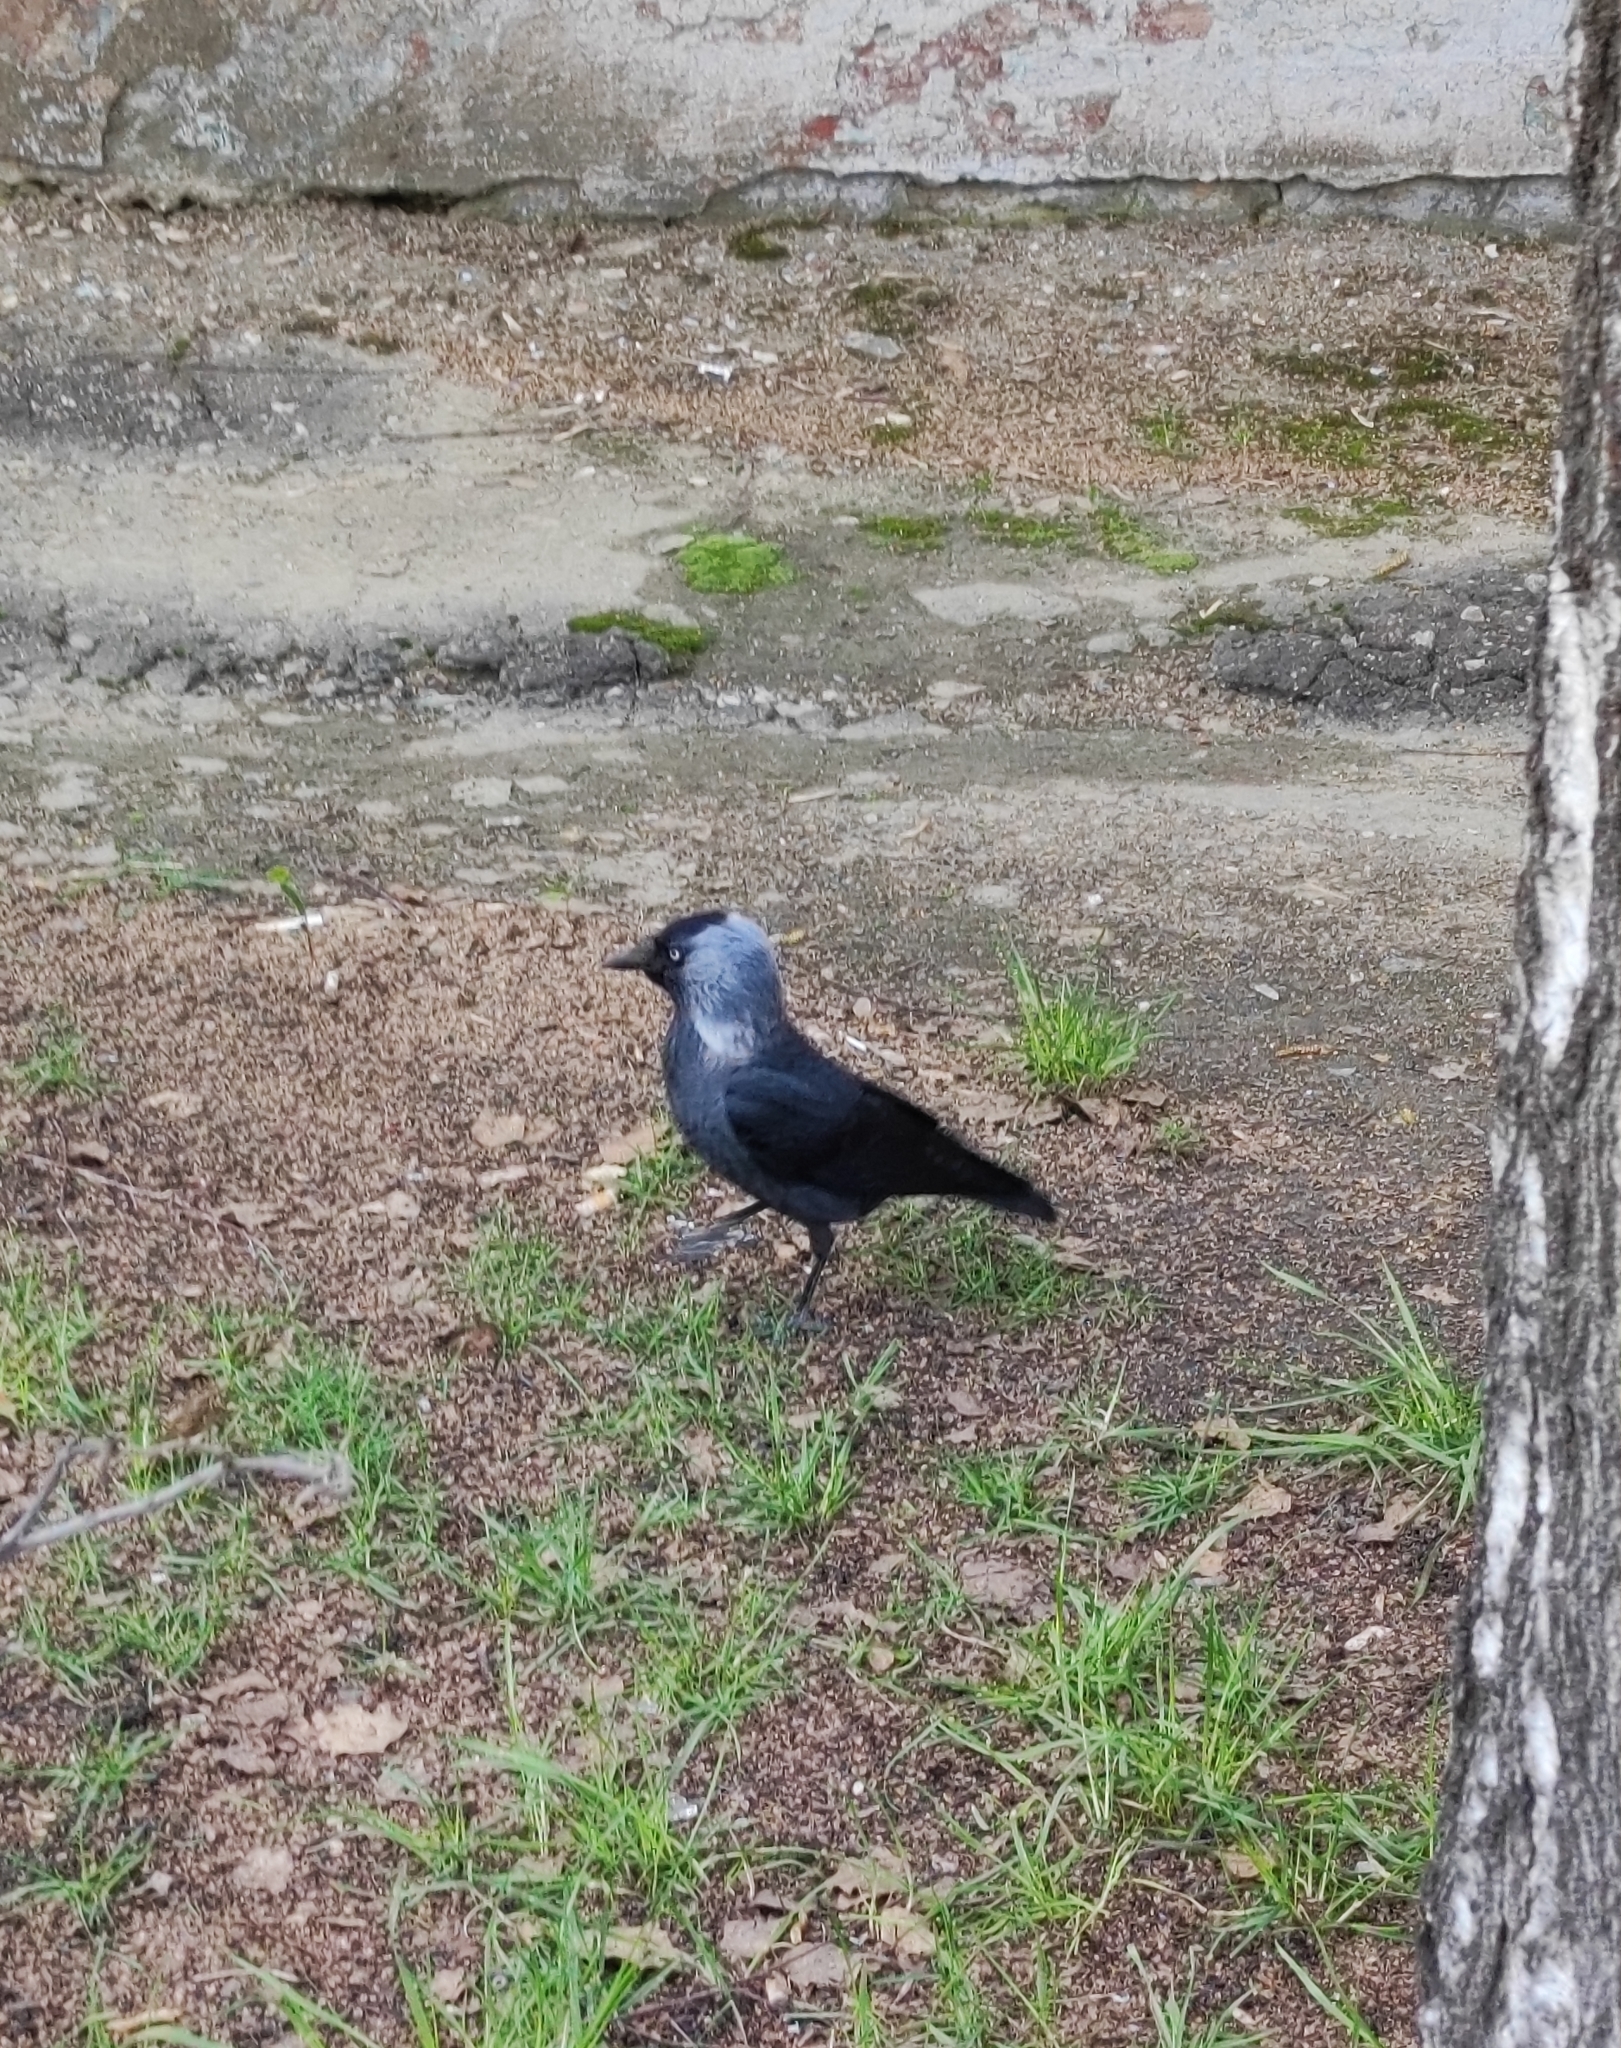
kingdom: Animalia
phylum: Chordata
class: Aves
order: Passeriformes
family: Corvidae
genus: Coloeus
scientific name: Coloeus monedula
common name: Western jackdaw
